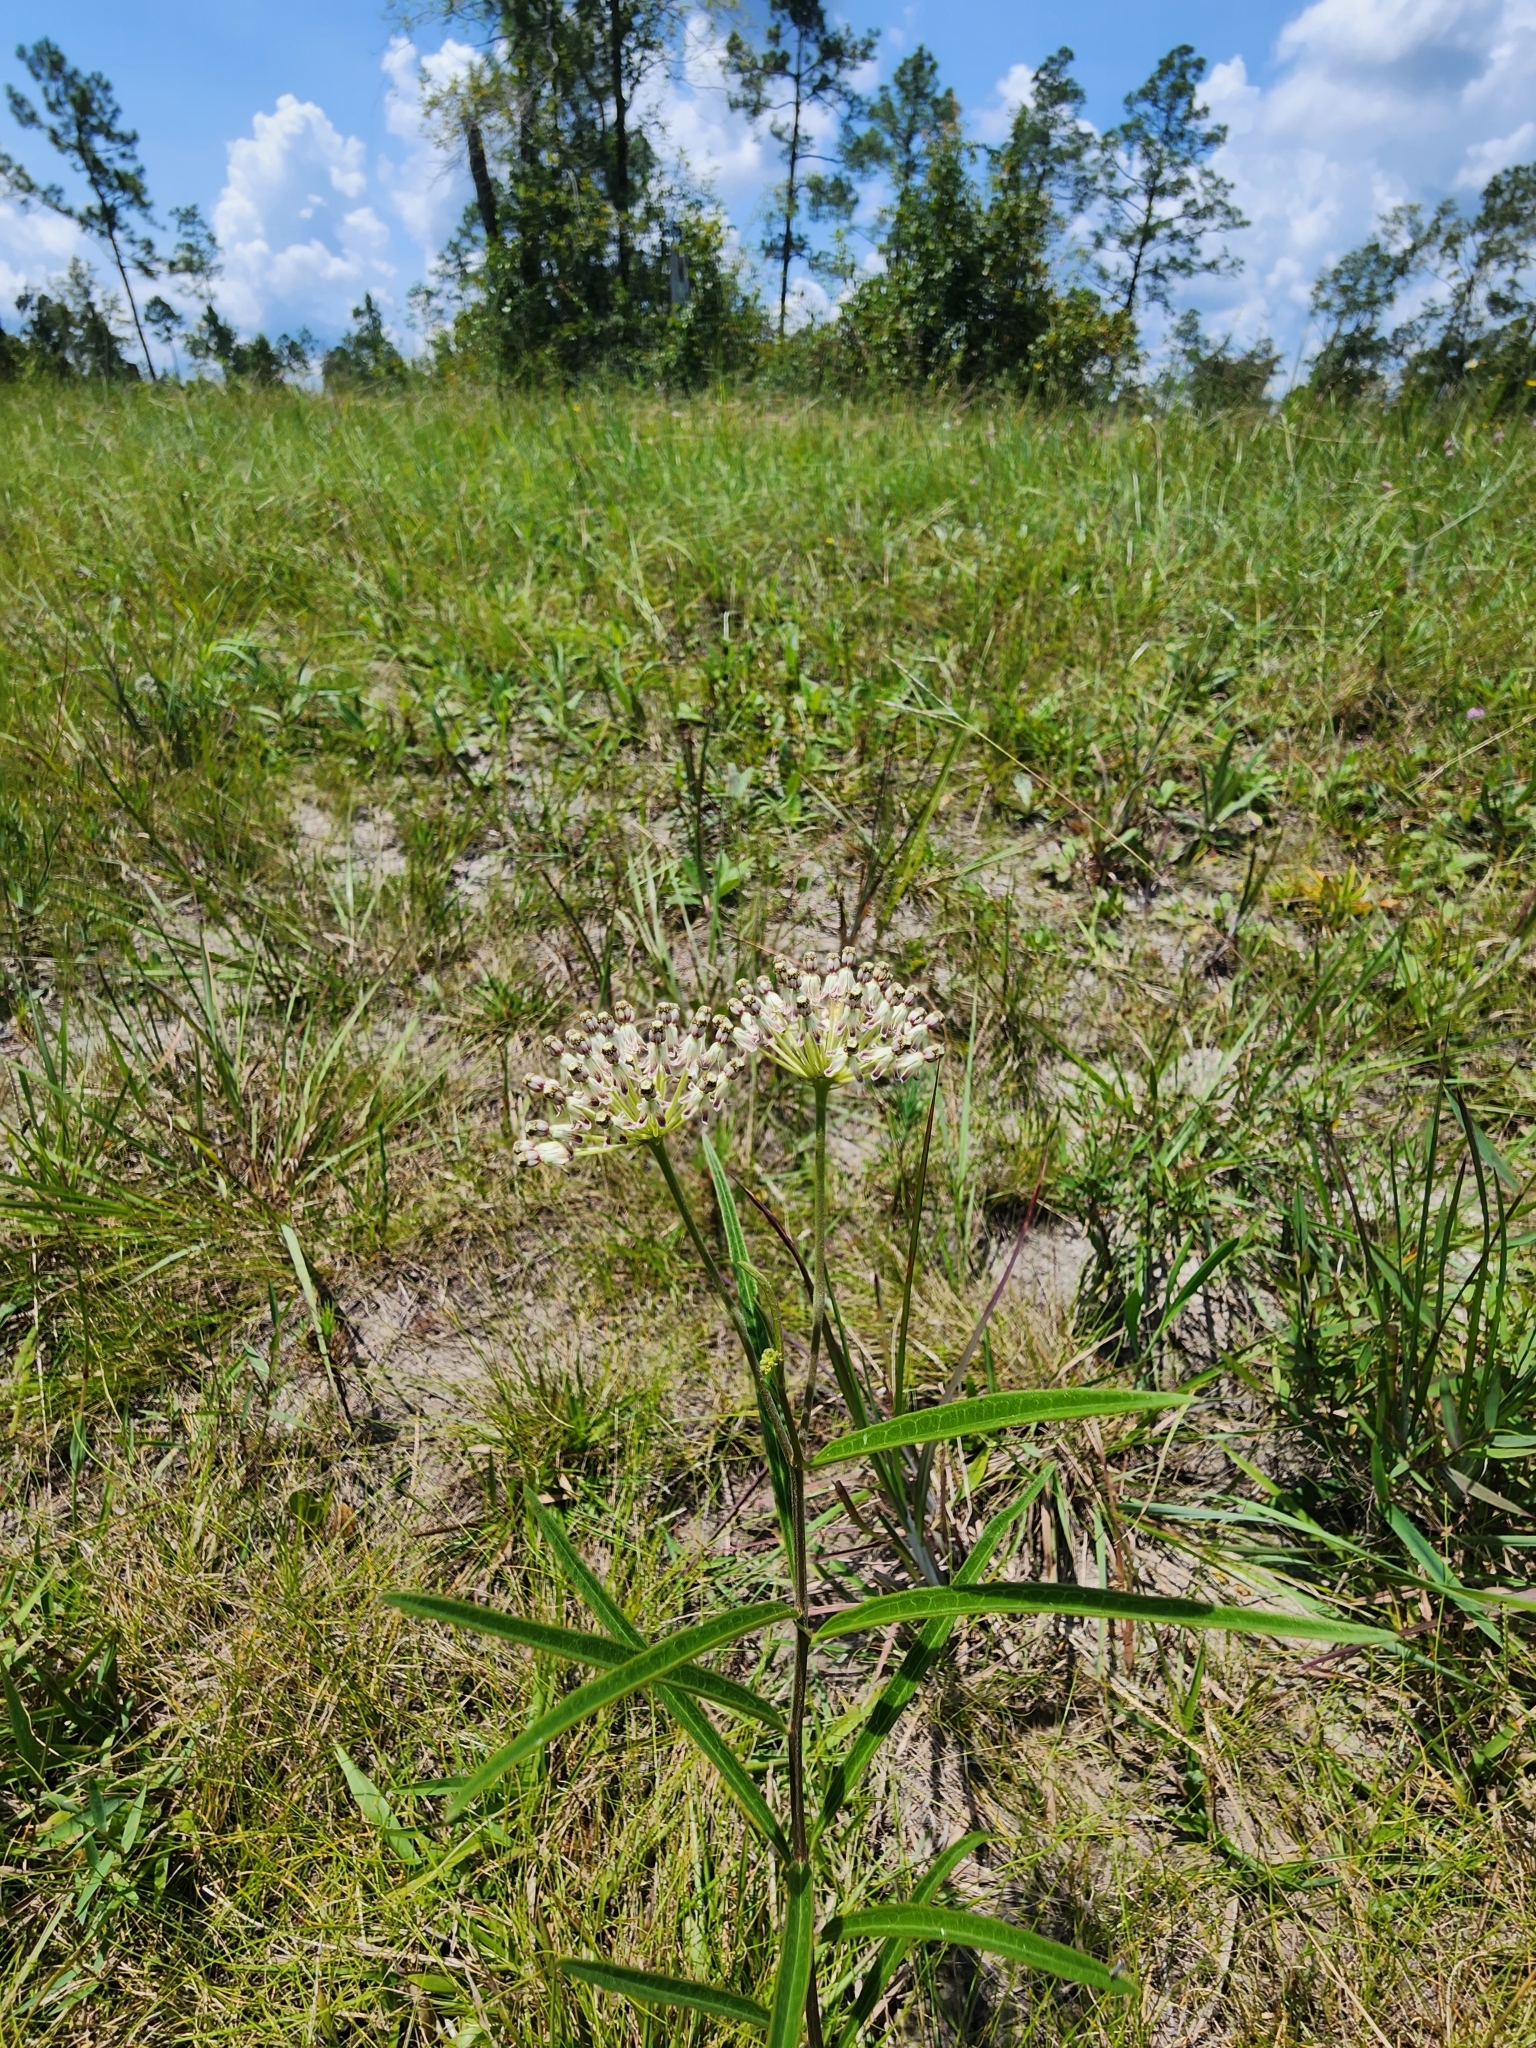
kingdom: Plantae
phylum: Tracheophyta
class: Magnoliopsida
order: Gentianales
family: Apocynaceae
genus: Asclepias
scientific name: Asclepias longifolia
